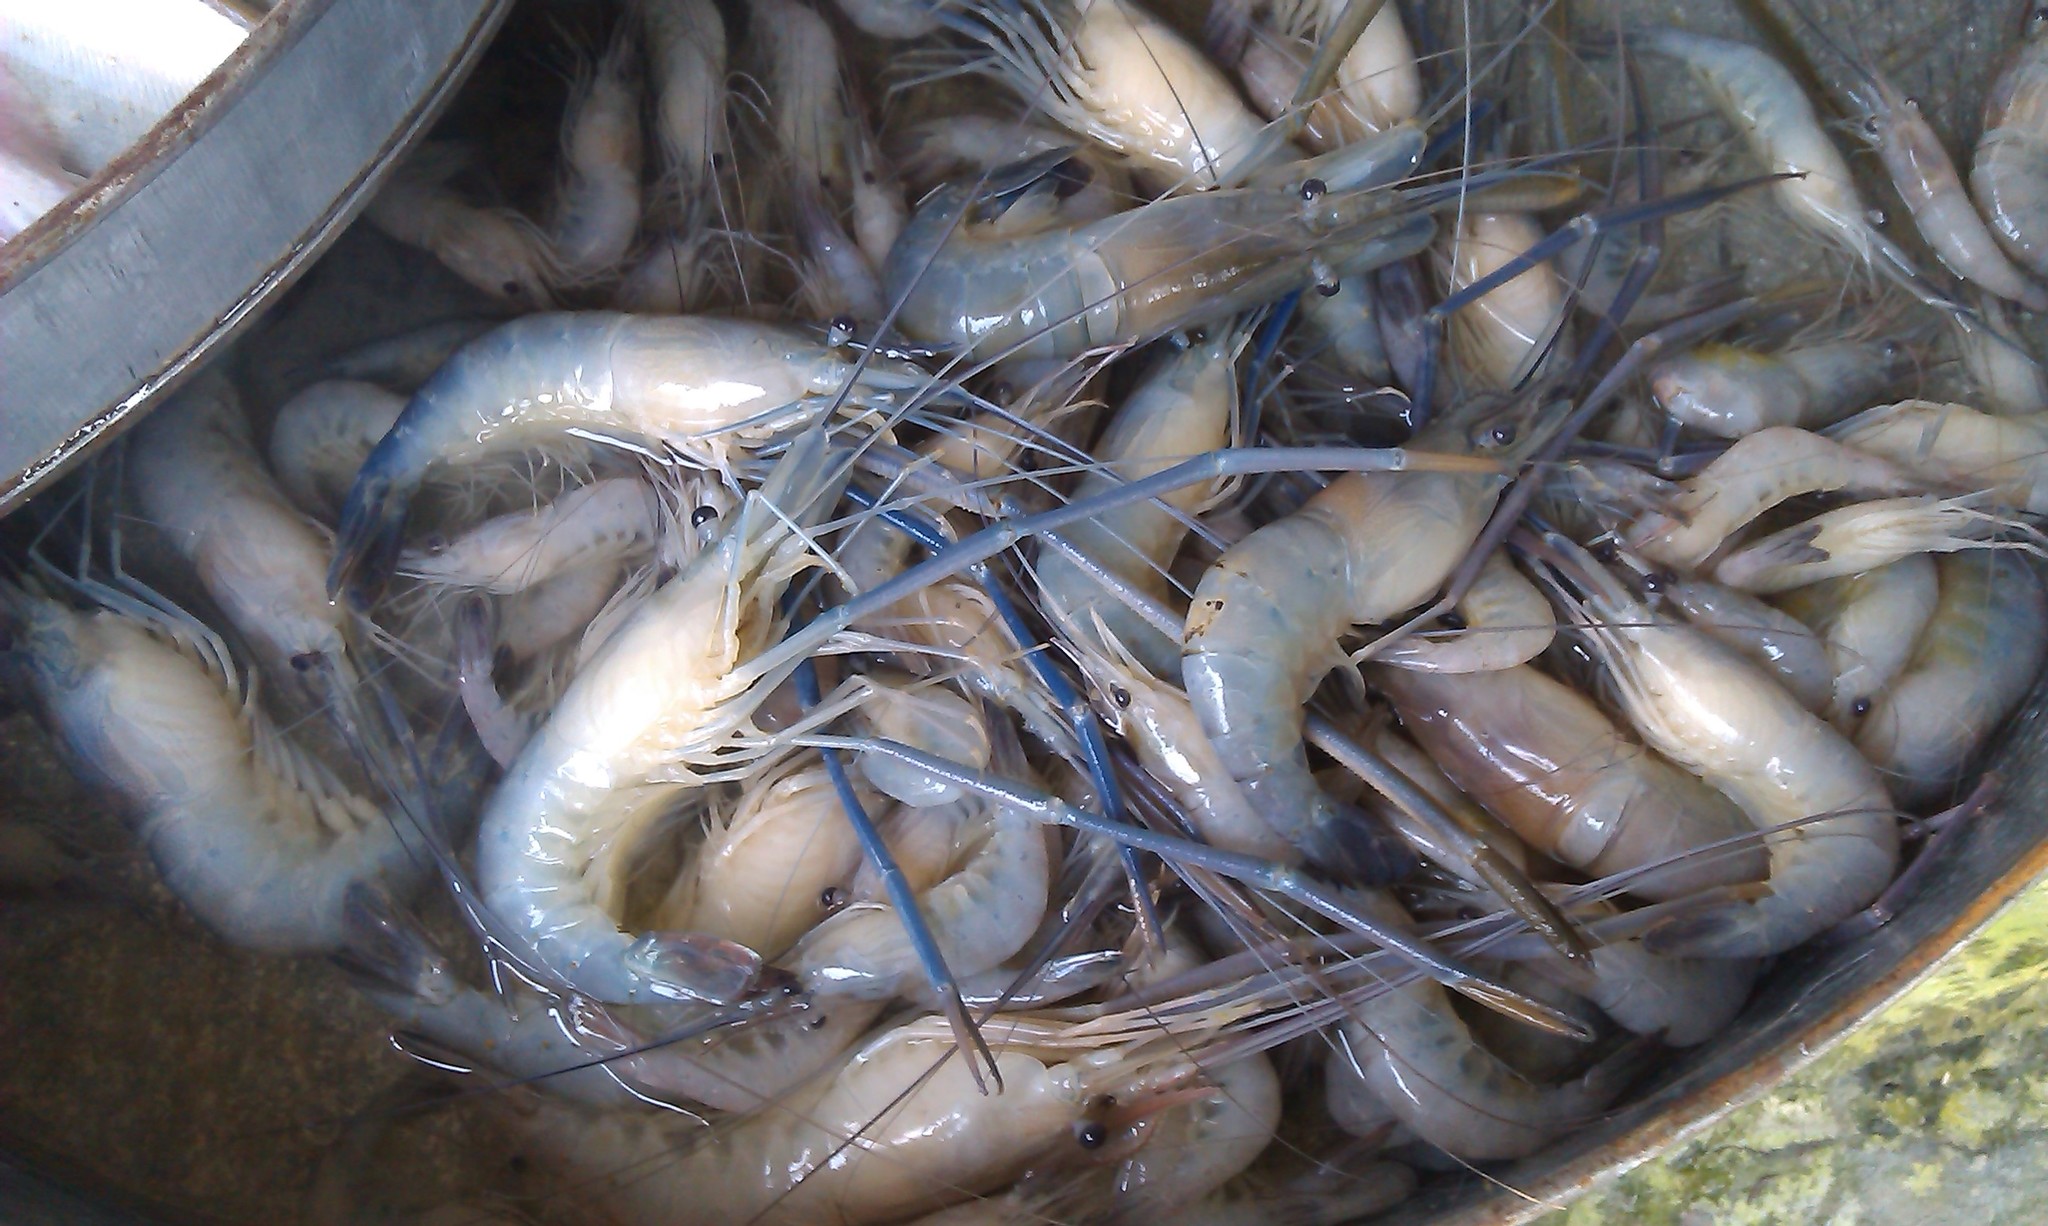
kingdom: Animalia
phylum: Arthropoda
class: Malacostraca
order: Decapoda
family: Palaemonidae
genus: Macrobrachium
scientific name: Macrobrachium rosenbergii
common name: Giant river prawn
